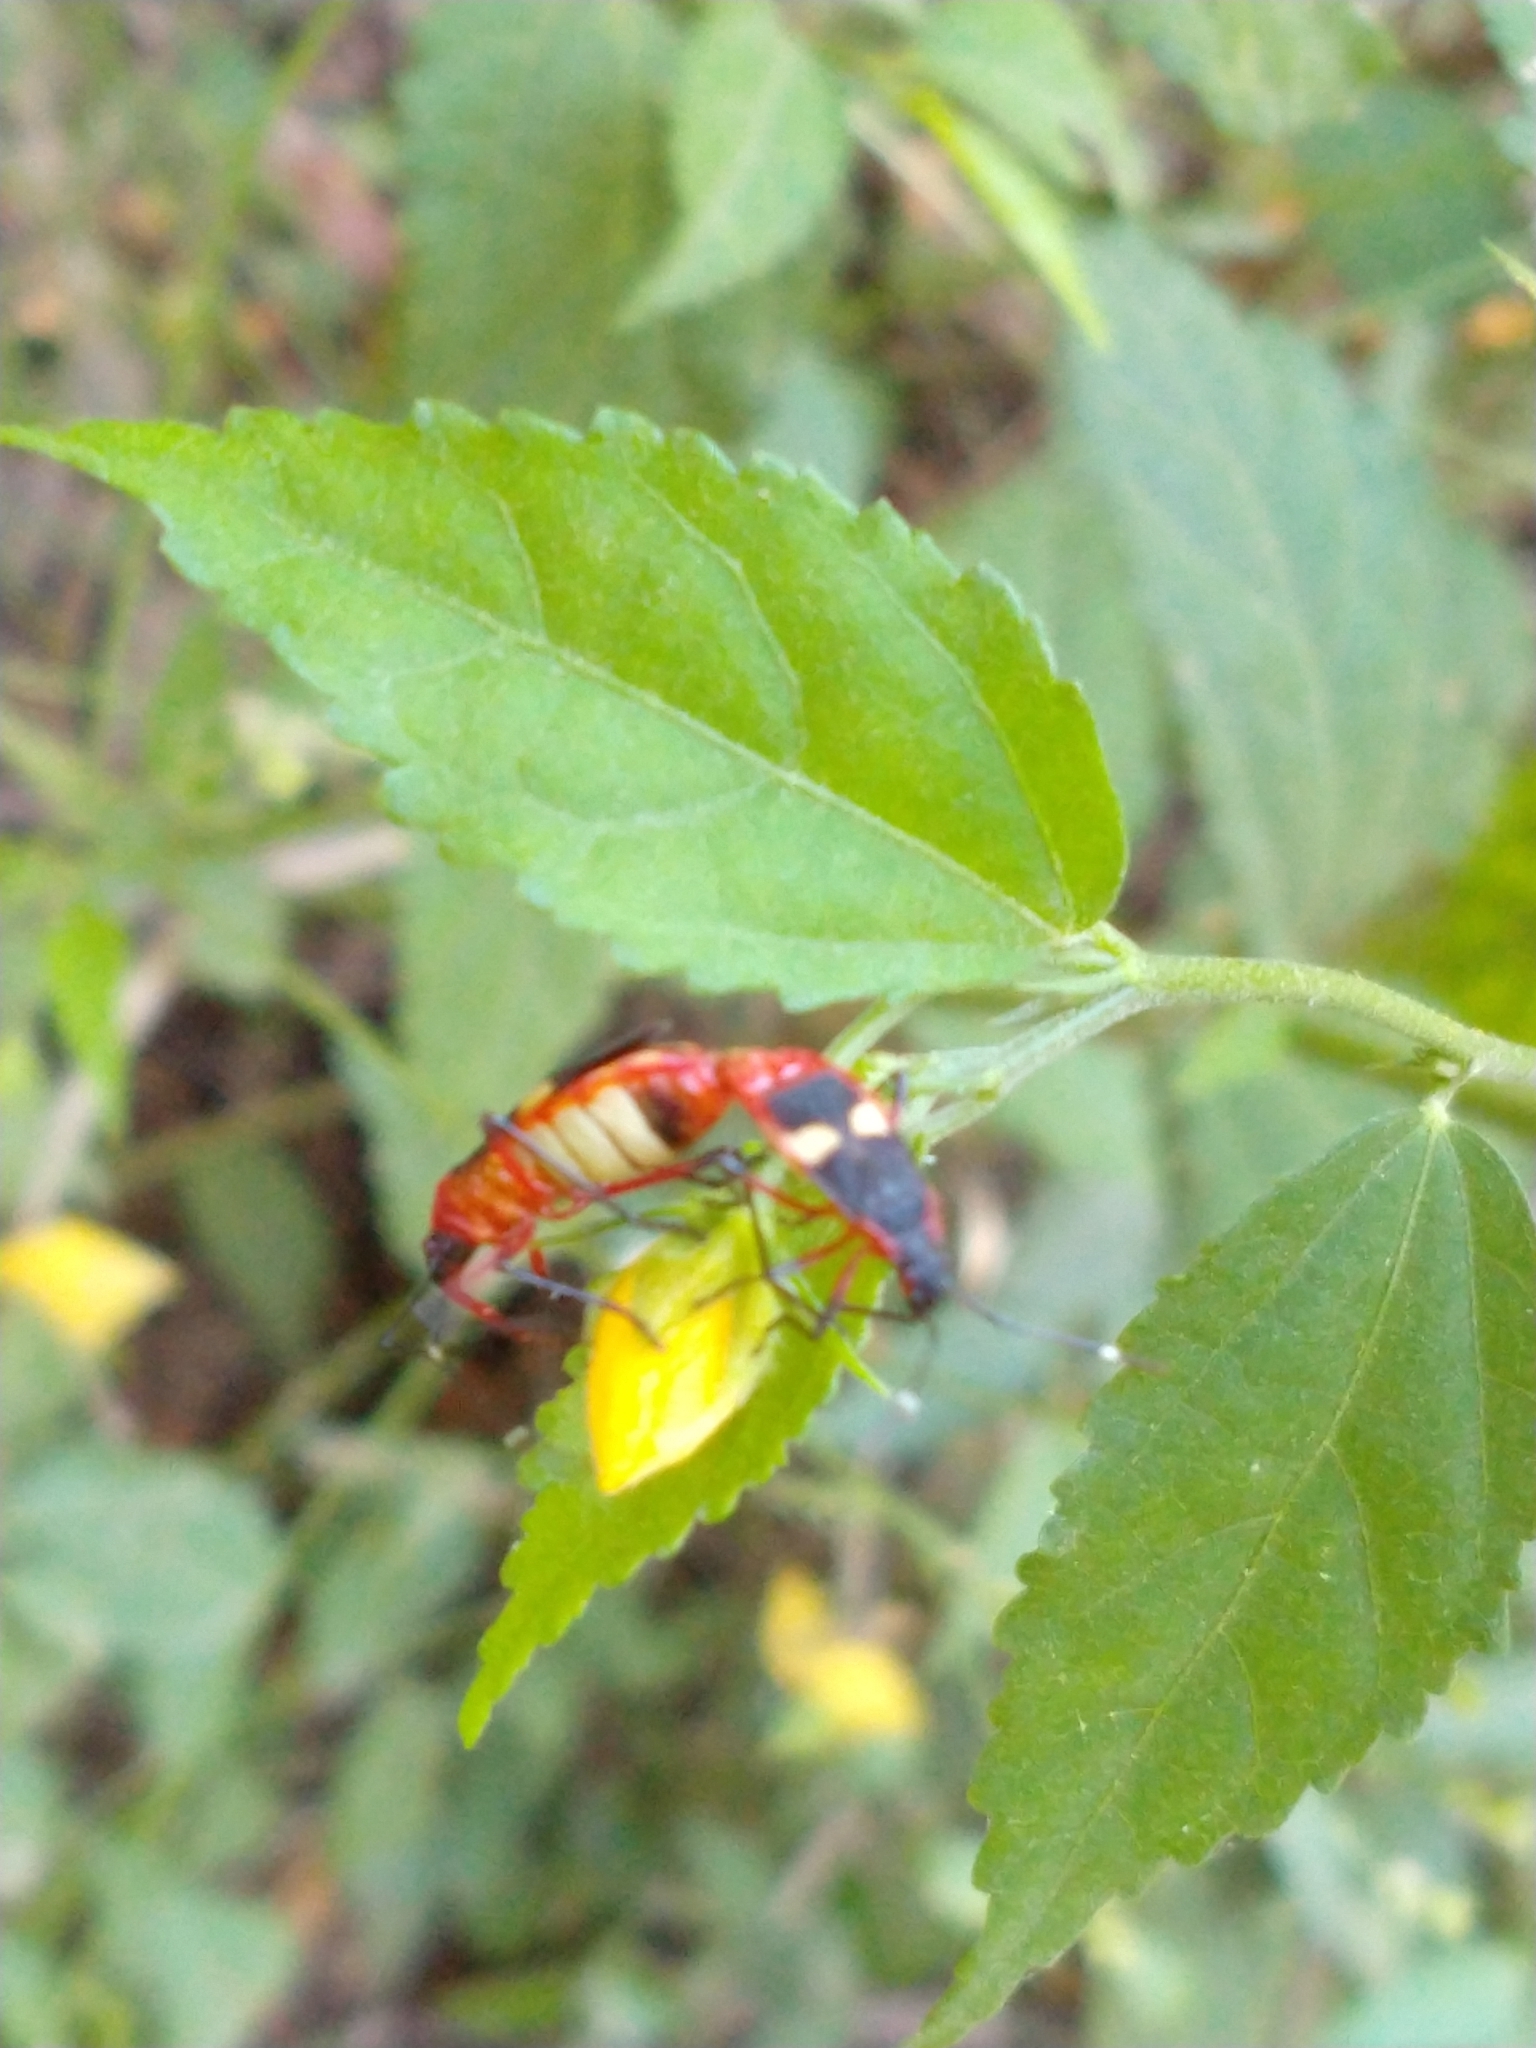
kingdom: Animalia
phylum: Arthropoda
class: Insecta
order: Hemiptera
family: Pyrrhocoridae
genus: Dysdercus
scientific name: Dysdercus albofasciatus
